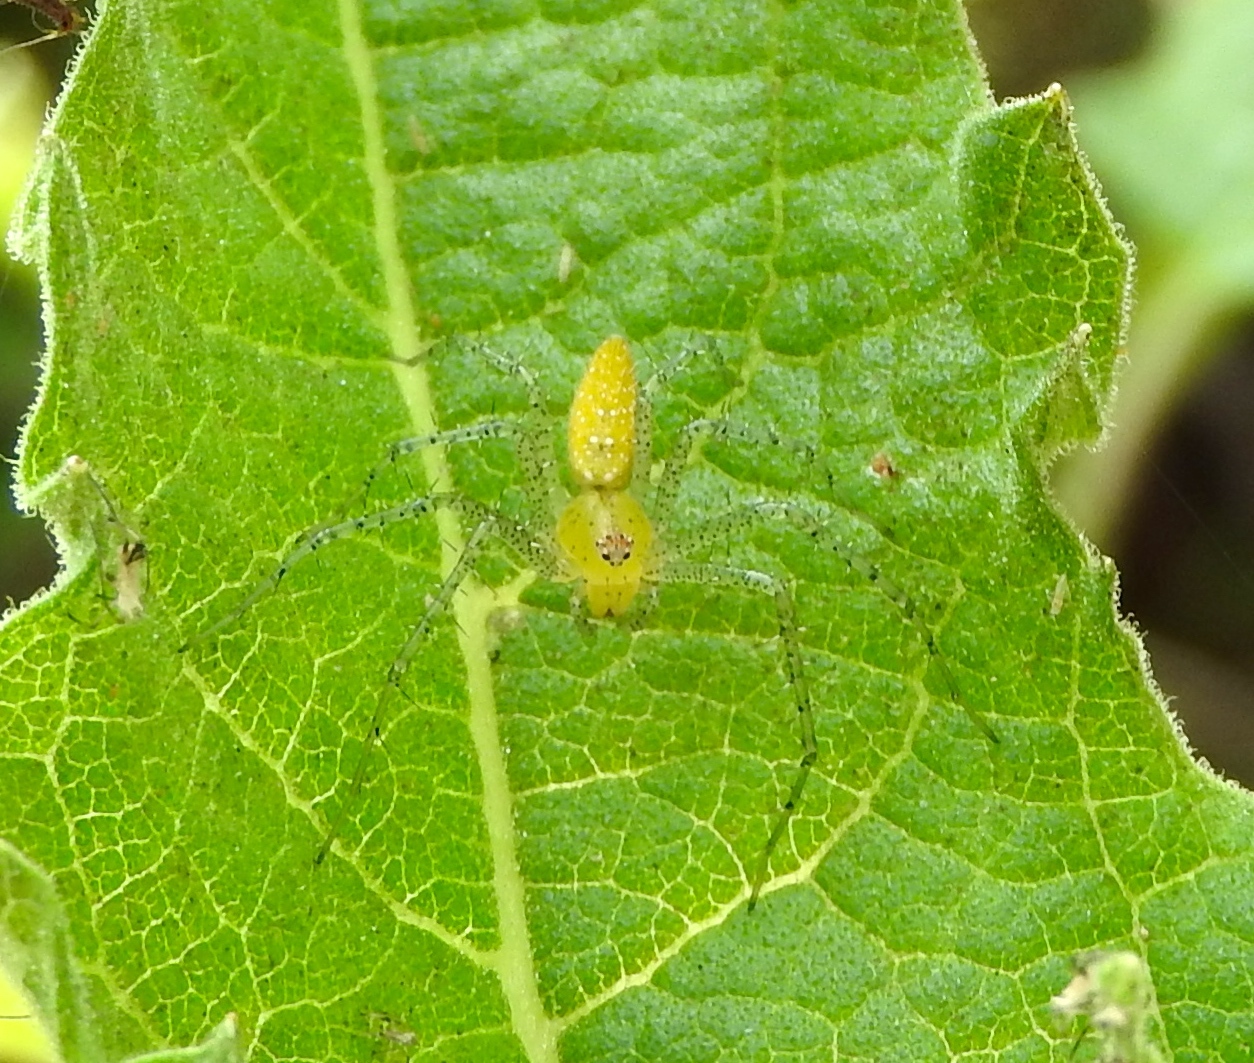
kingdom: Animalia
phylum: Arthropoda
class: Arachnida
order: Araneae
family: Oxyopidae
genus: Peucetia
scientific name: Peucetia longipalpis
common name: Lynx spiders
